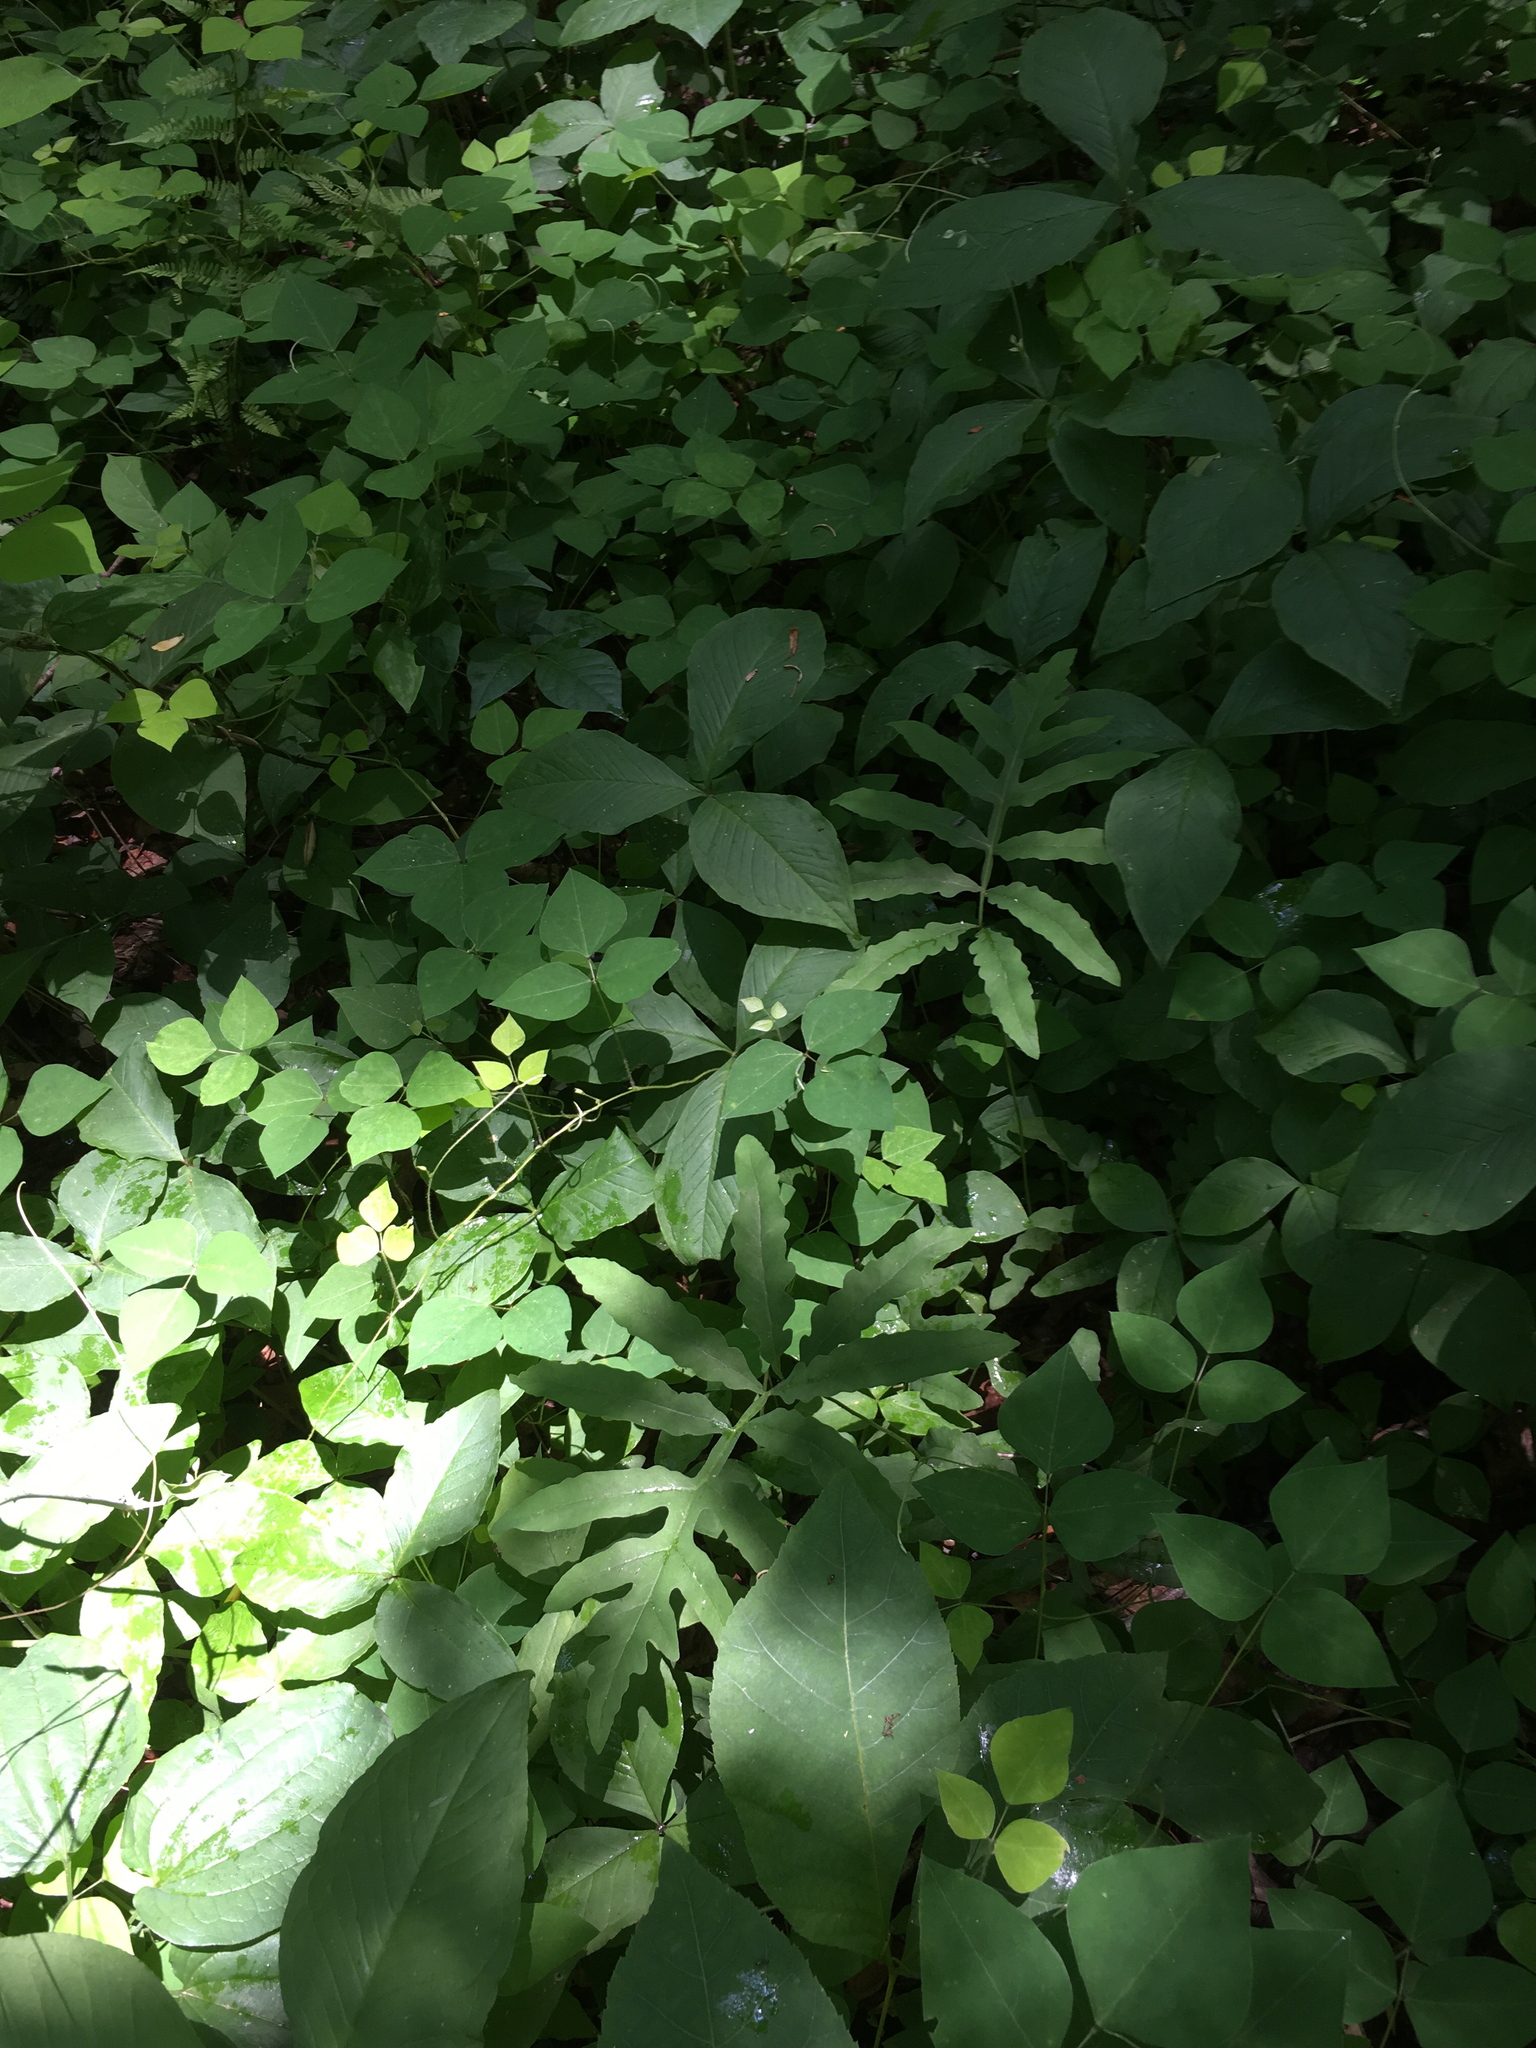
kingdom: Plantae
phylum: Tracheophyta
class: Polypodiopsida
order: Polypodiales
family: Onocleaceae
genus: Onoclea
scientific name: Onoclea sensibilis
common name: Sensitive fern
